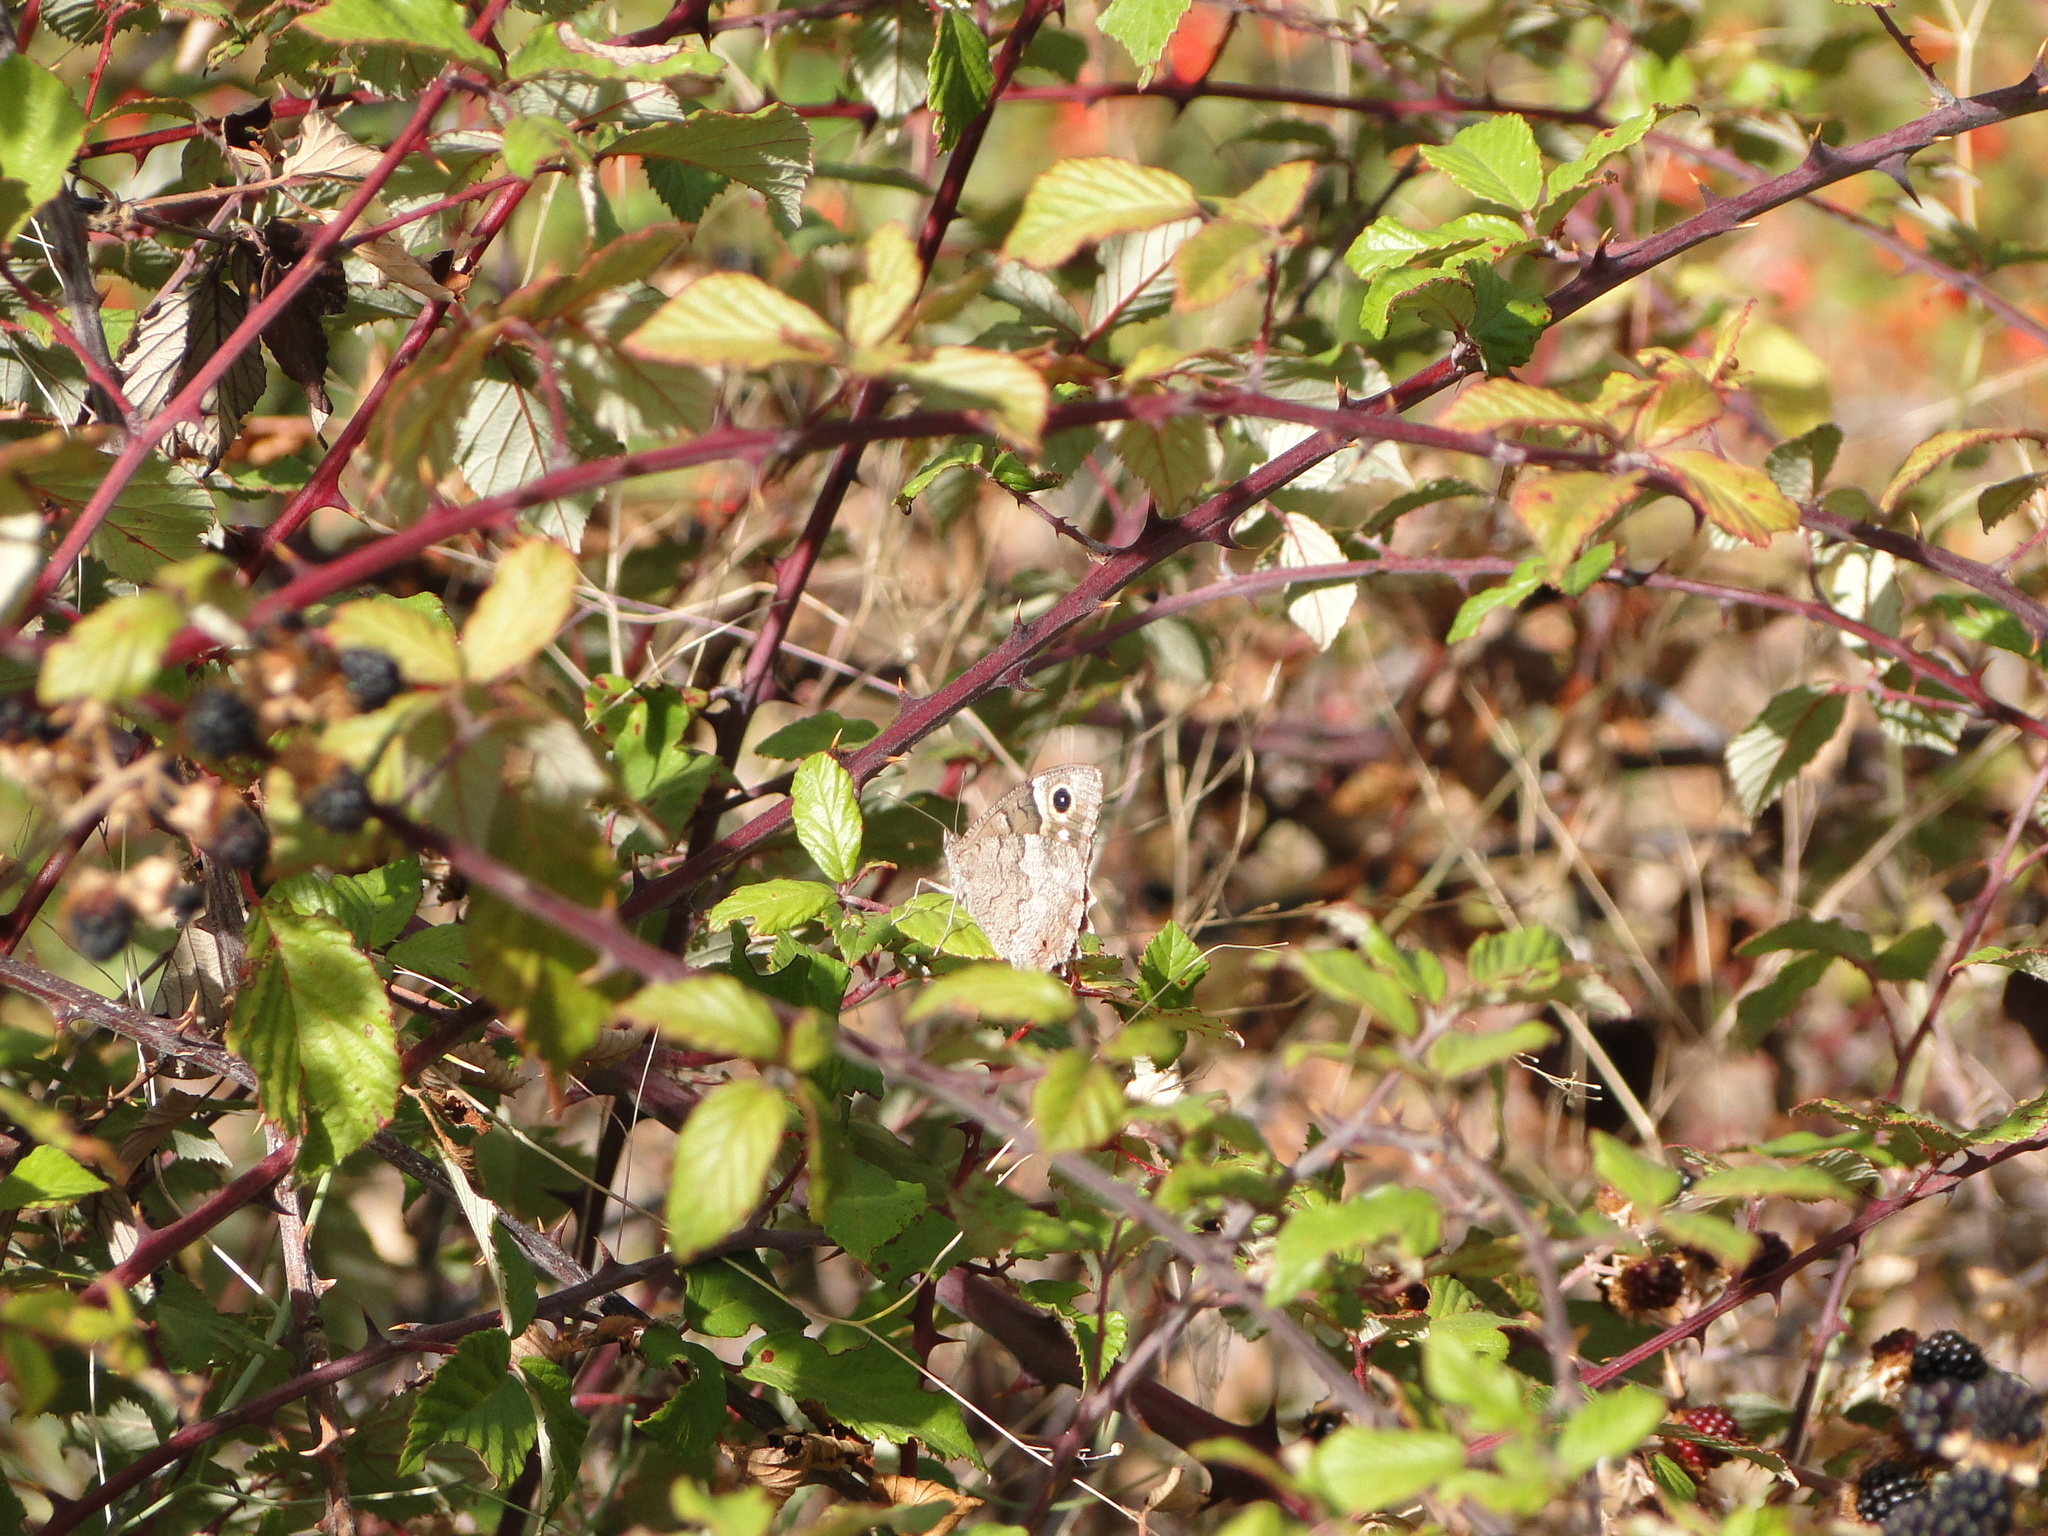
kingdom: Animalia
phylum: Arthropoda
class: Insecta
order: Lepidoptera
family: Nymphalidae
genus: Hipparchia
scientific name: Hipparchia statilinus
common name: Tree grayling
